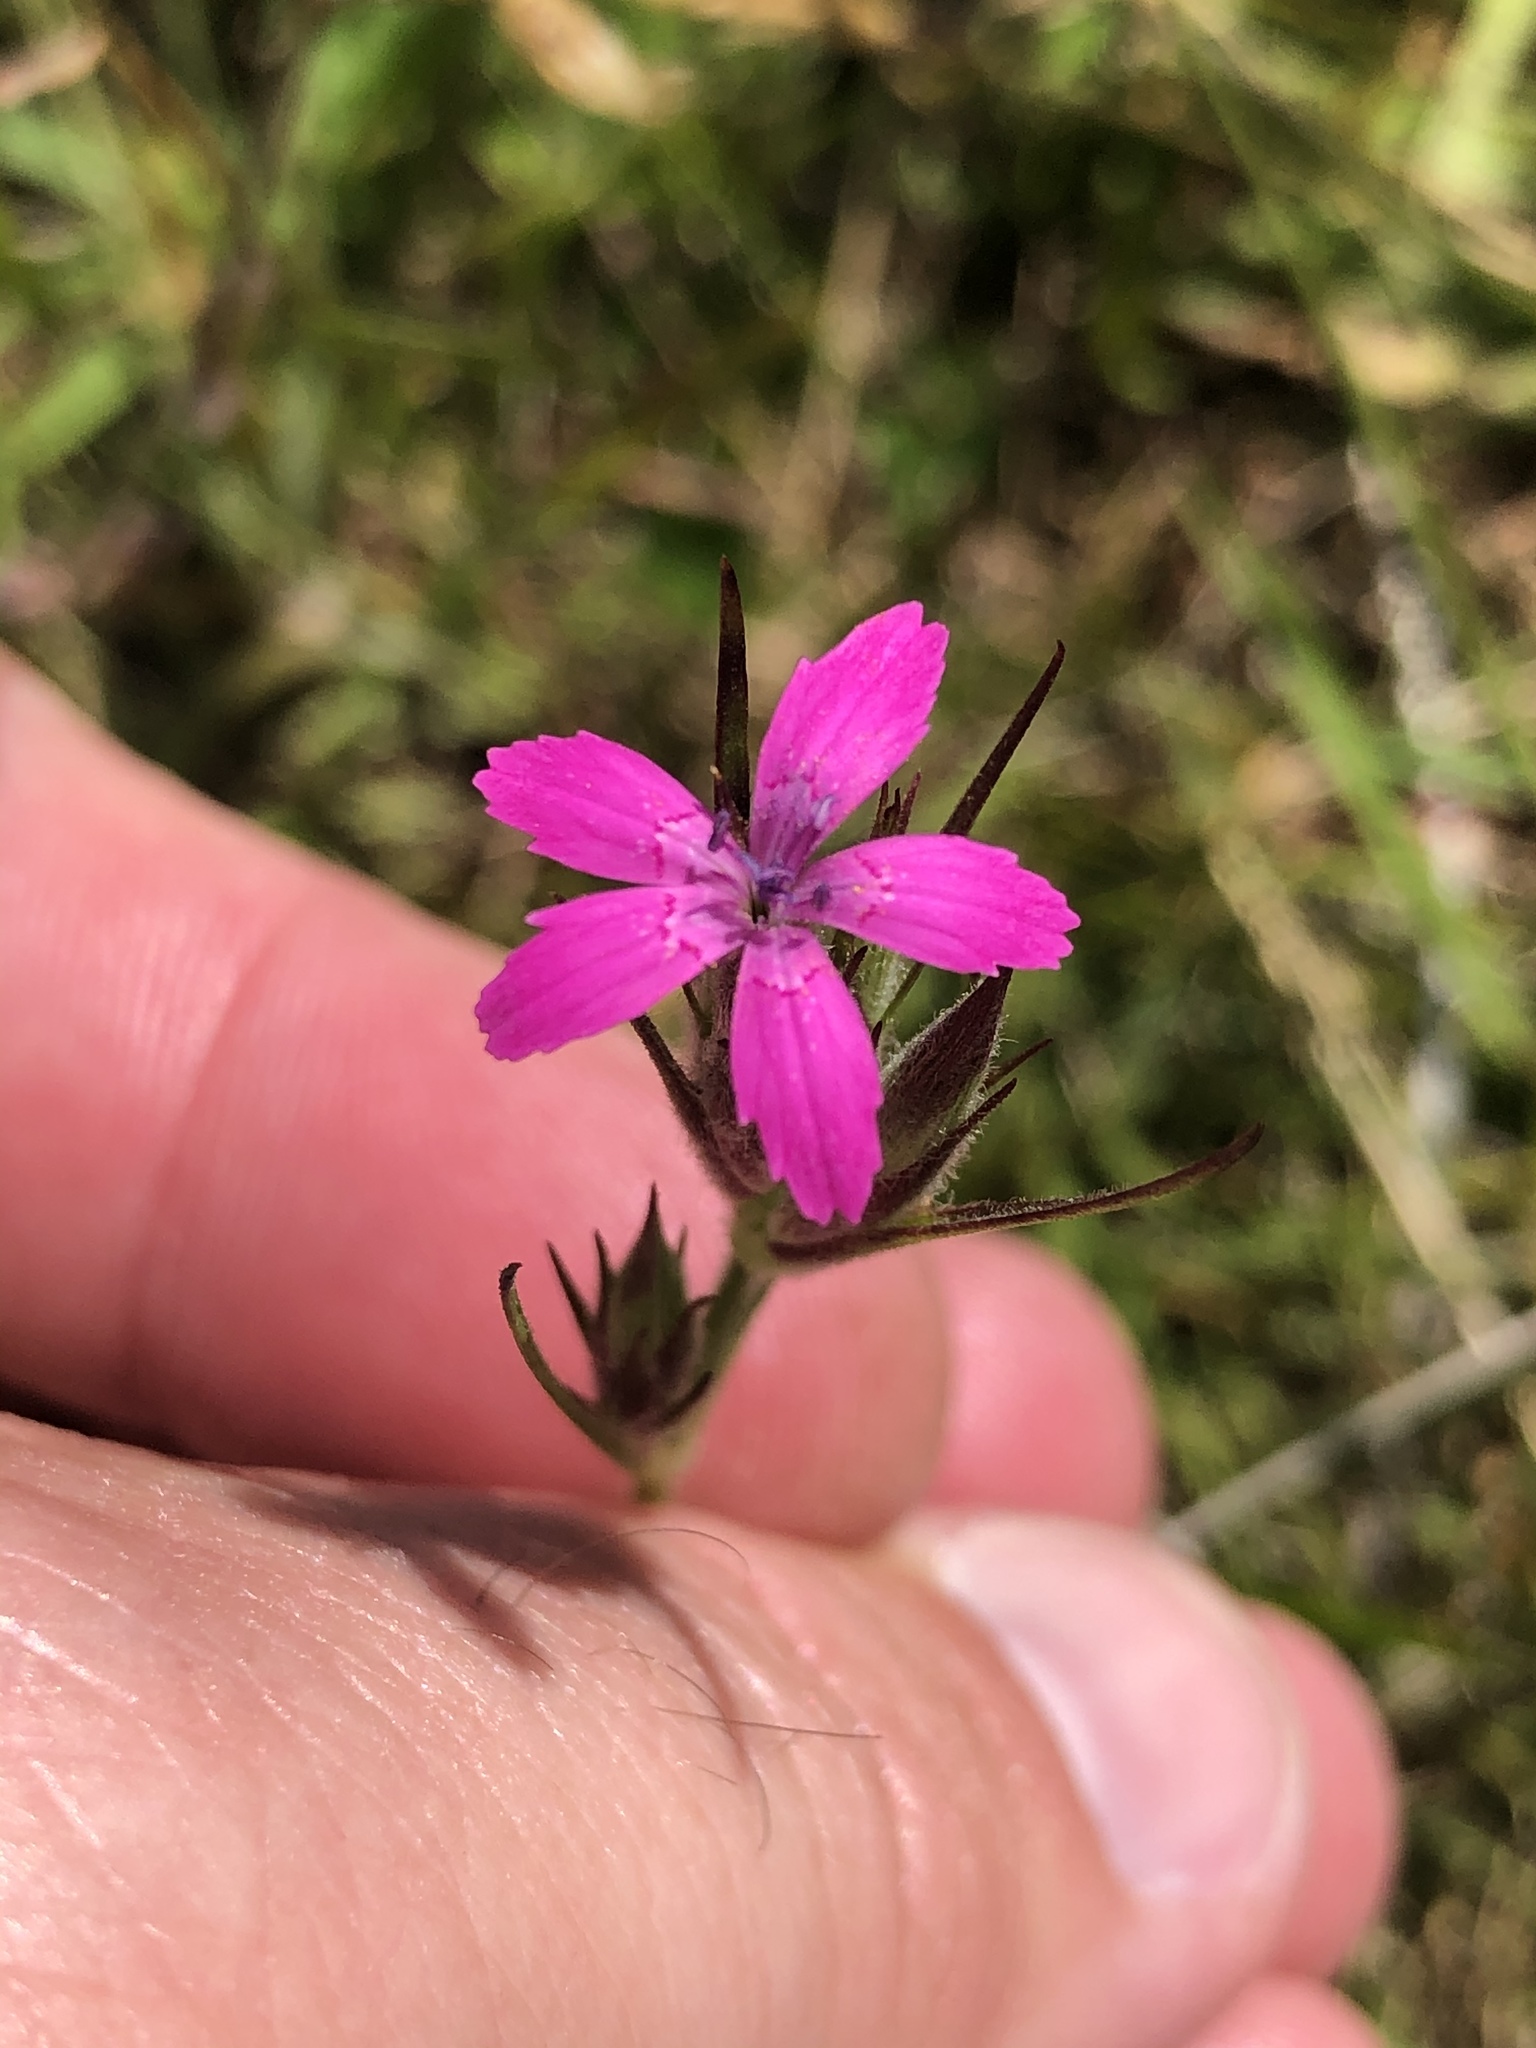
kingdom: Plantae
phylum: Tracheophyta
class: Magnoliopsida
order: Caryophyllales
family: Caryophyllaceae
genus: Dianthus
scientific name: Dianthus armeria
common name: Deptford pink
